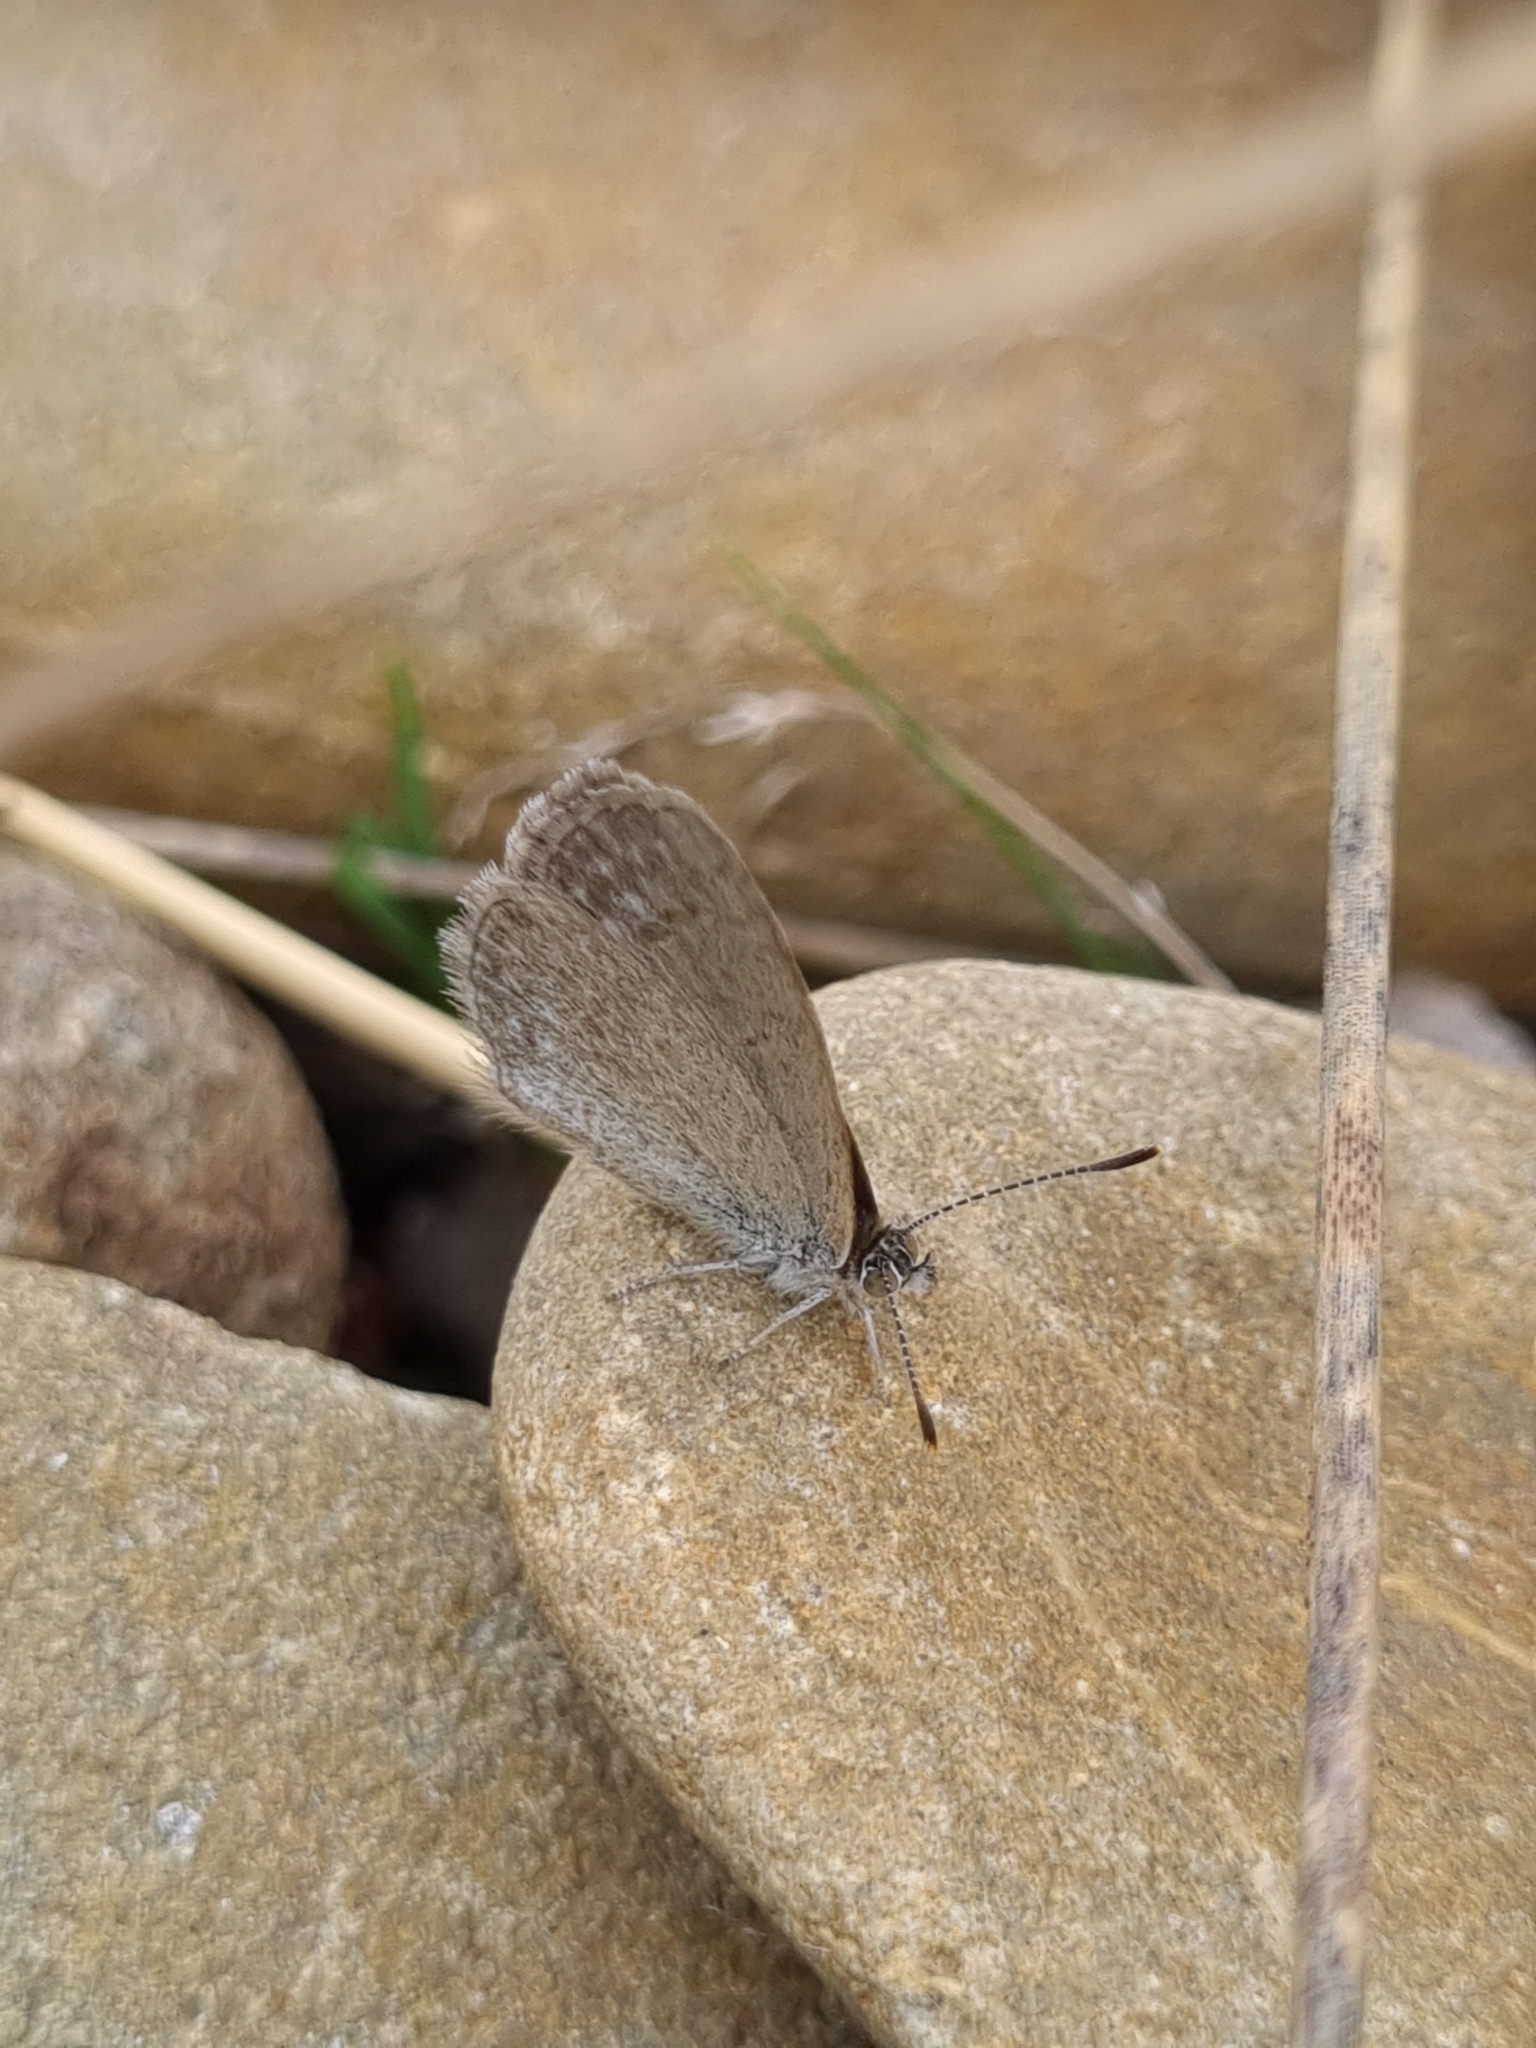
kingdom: Animalia
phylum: Arthropoda
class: Insecta
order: Lepidoptera
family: Lycaenidae
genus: Zizina
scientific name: Zizina otis
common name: Lesser grass blue
